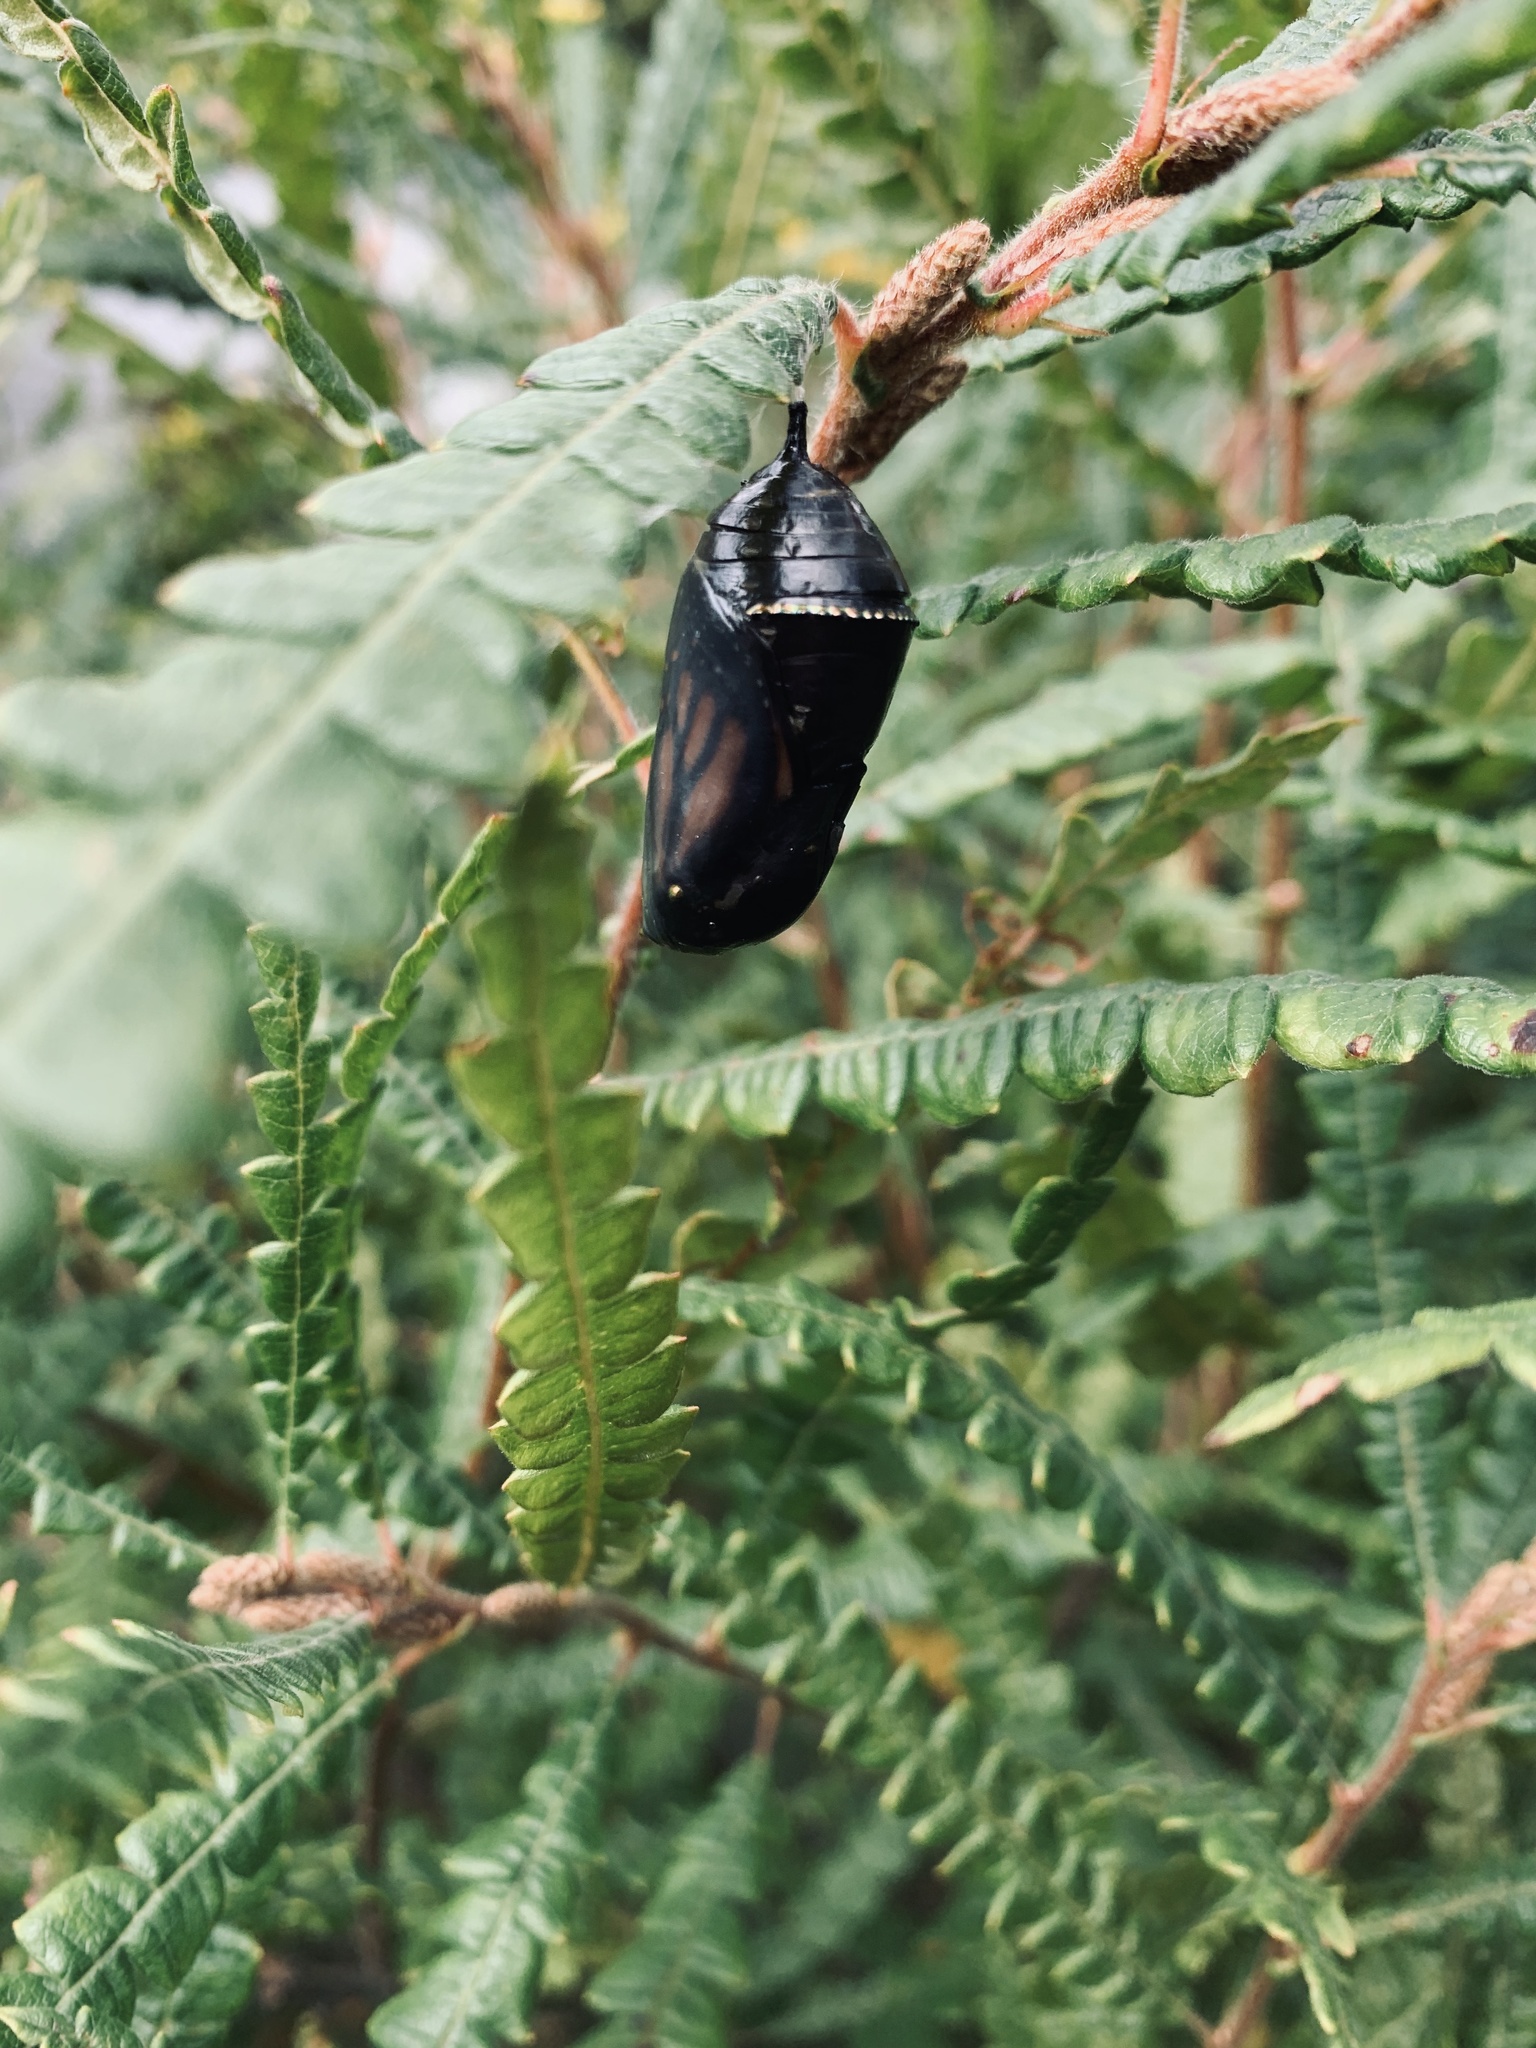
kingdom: Animalia
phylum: Arthropoda
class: Insecta
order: Lepidoptera
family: Nymphalidae
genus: Danaus
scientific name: Danaus plexippus
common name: Monarch
